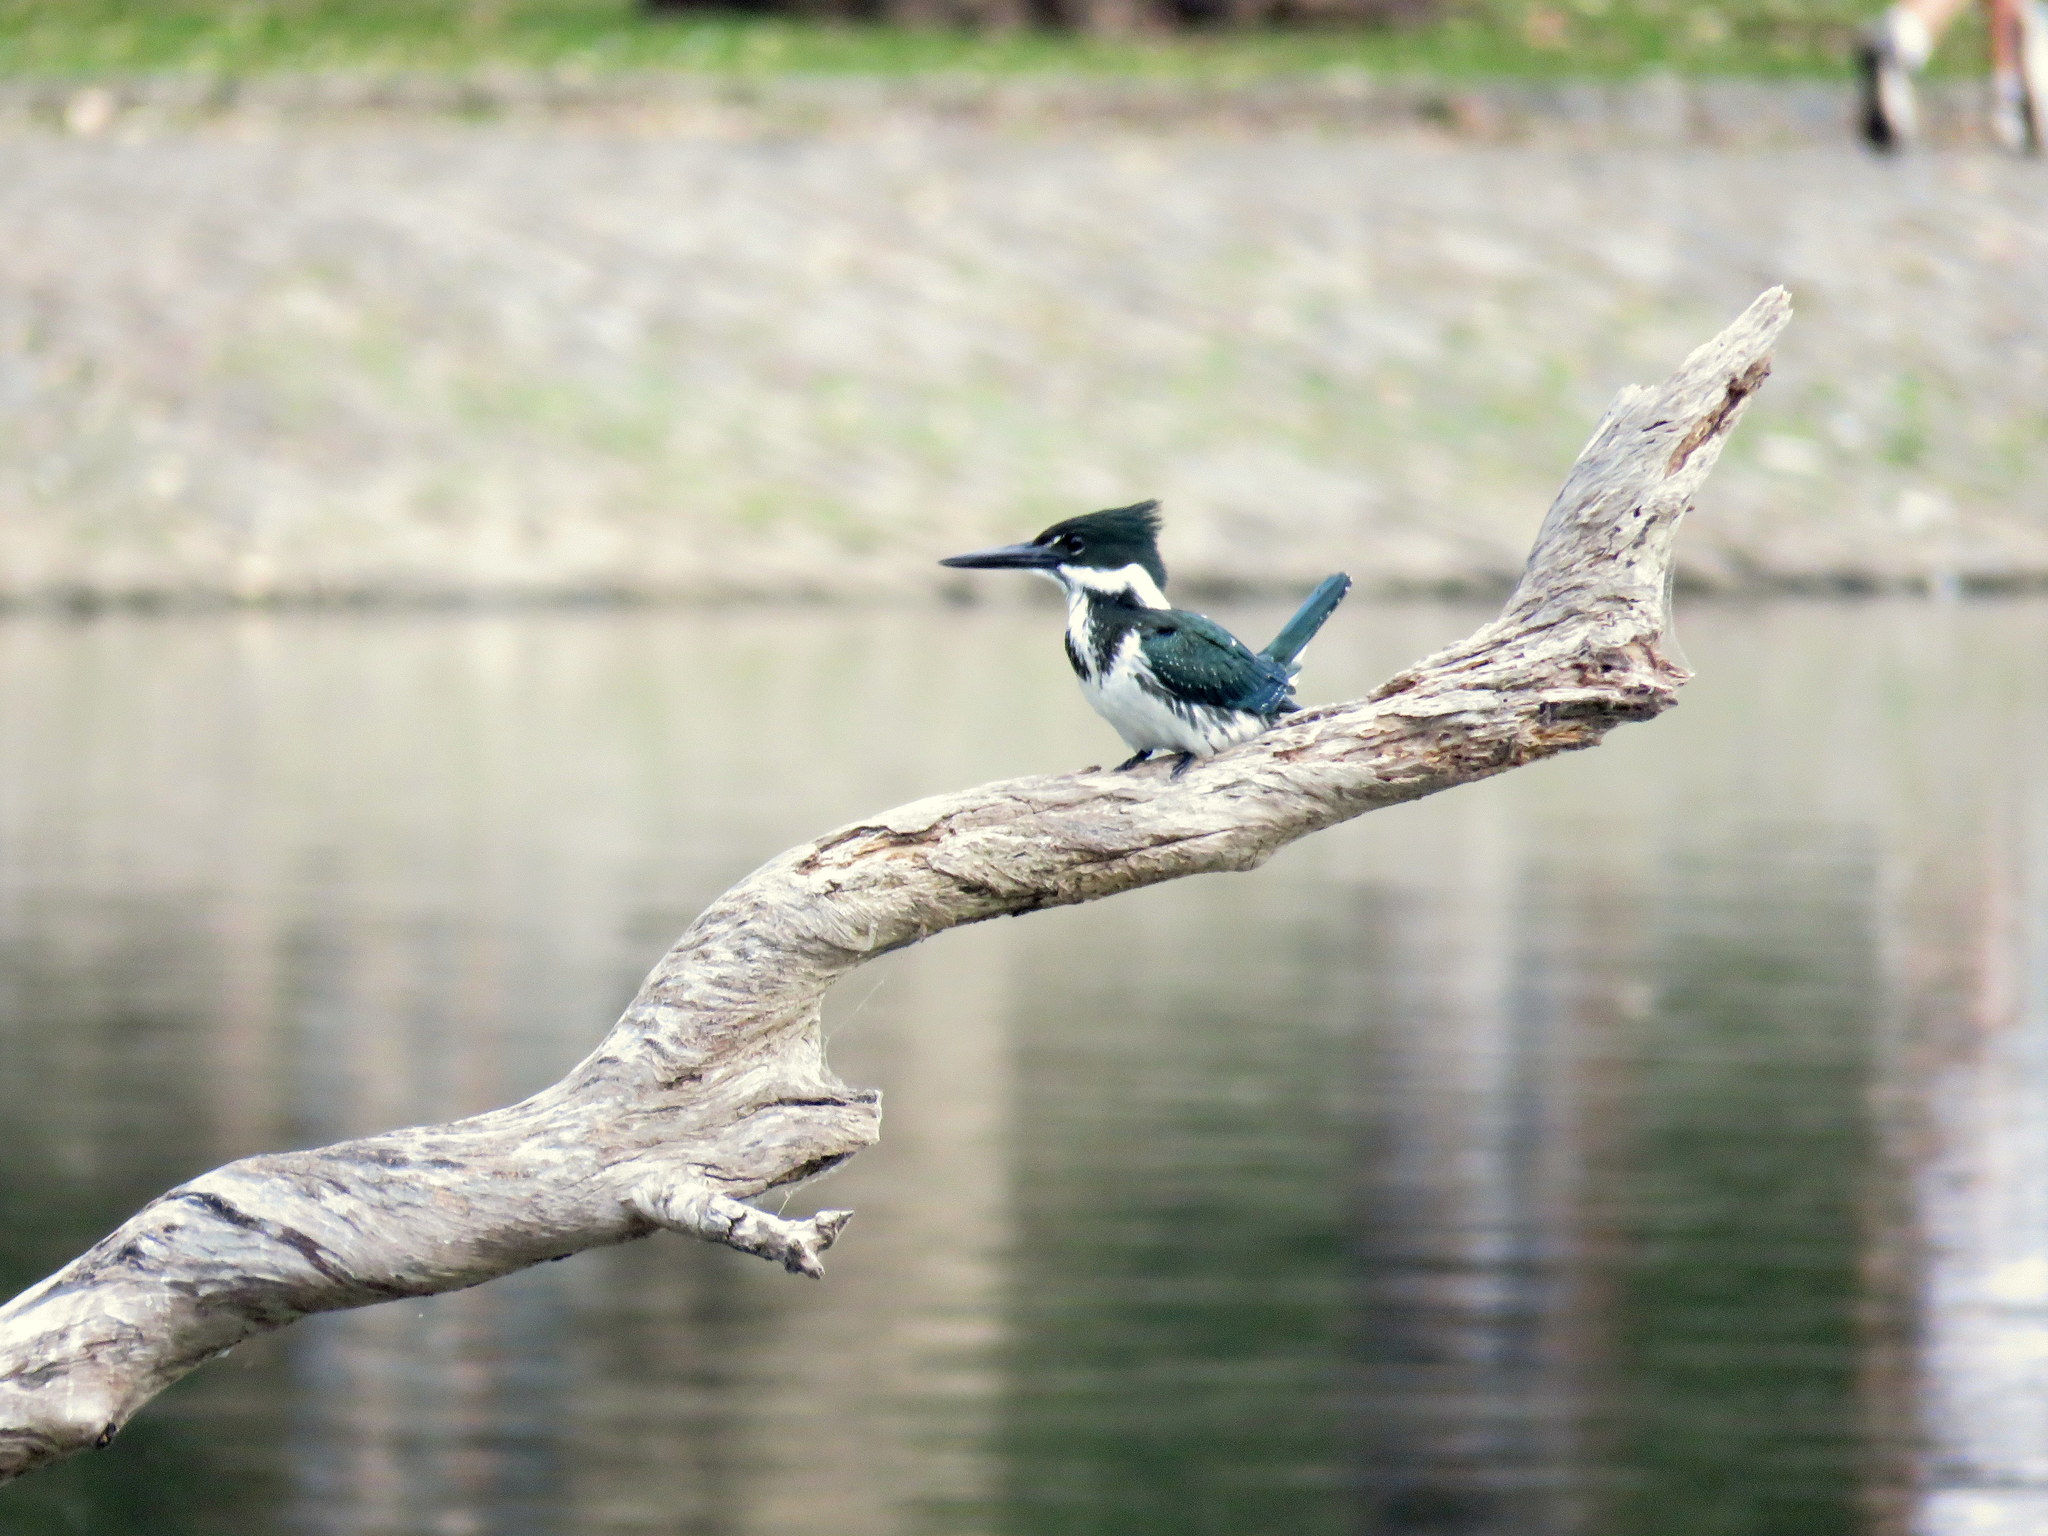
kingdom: Animalia
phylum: Chordata
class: Aves
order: Coraciiformes
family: Alcedinidae
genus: Chloroceryle
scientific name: Chloroceryle amazona
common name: Amazon kingfisher
